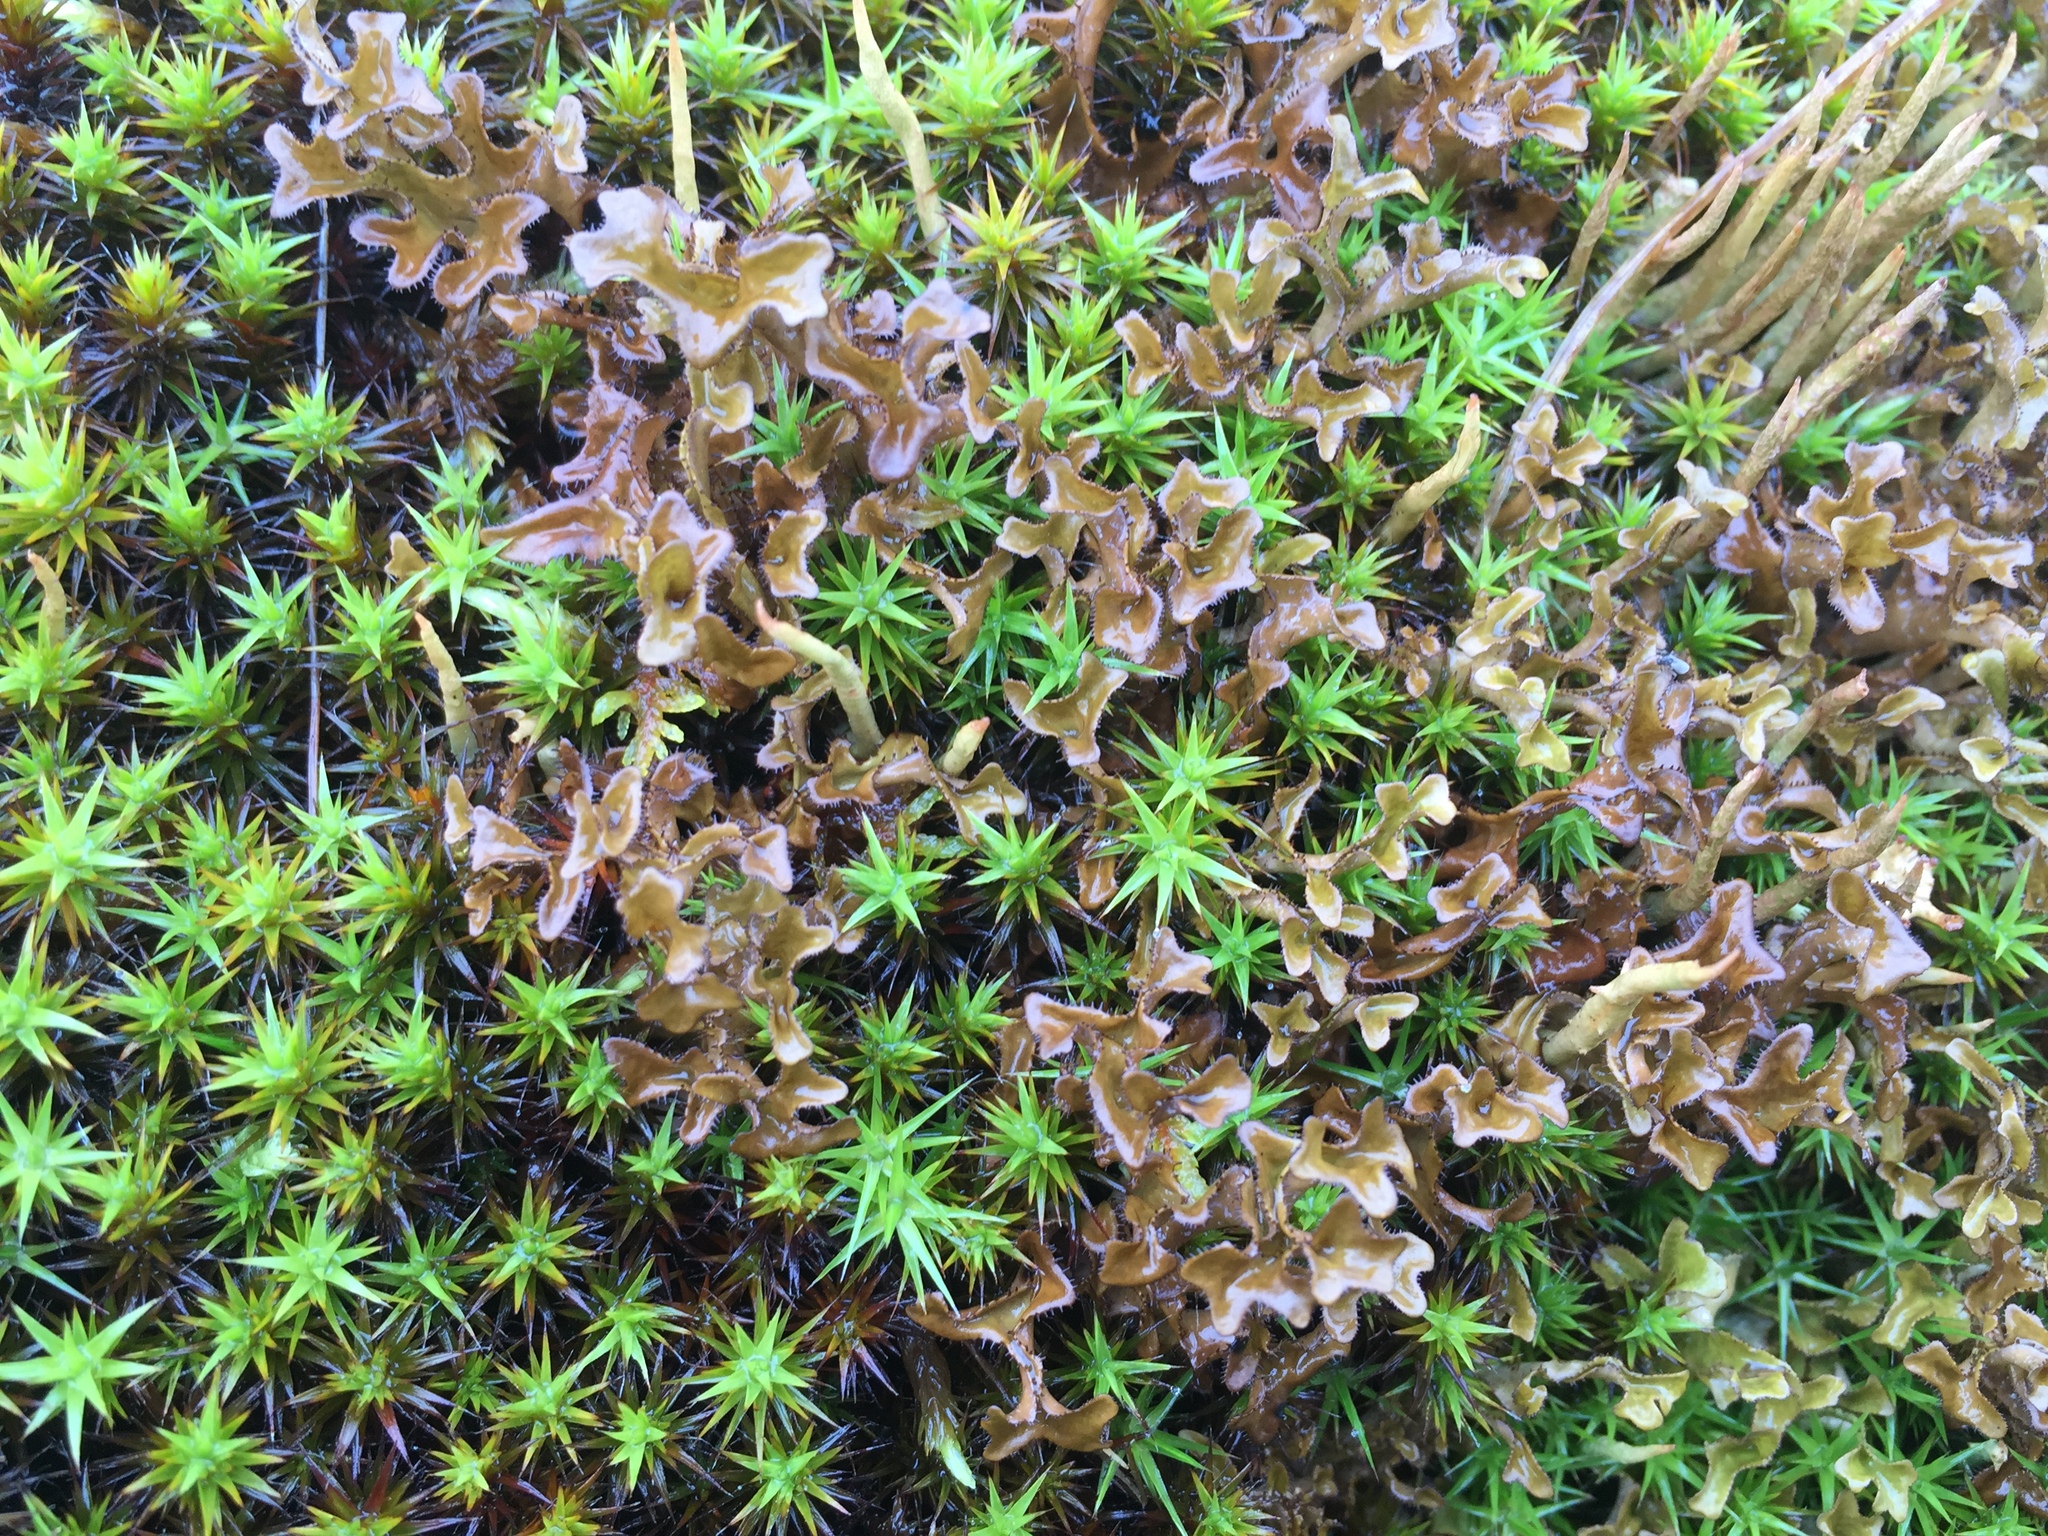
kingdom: Fungi
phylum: Ascomycota
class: Lecanoromycetes
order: Lecanorales
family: Parmeliaceae
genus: Cetraria
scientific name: Cetraria islandica
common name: Iceland lichen
